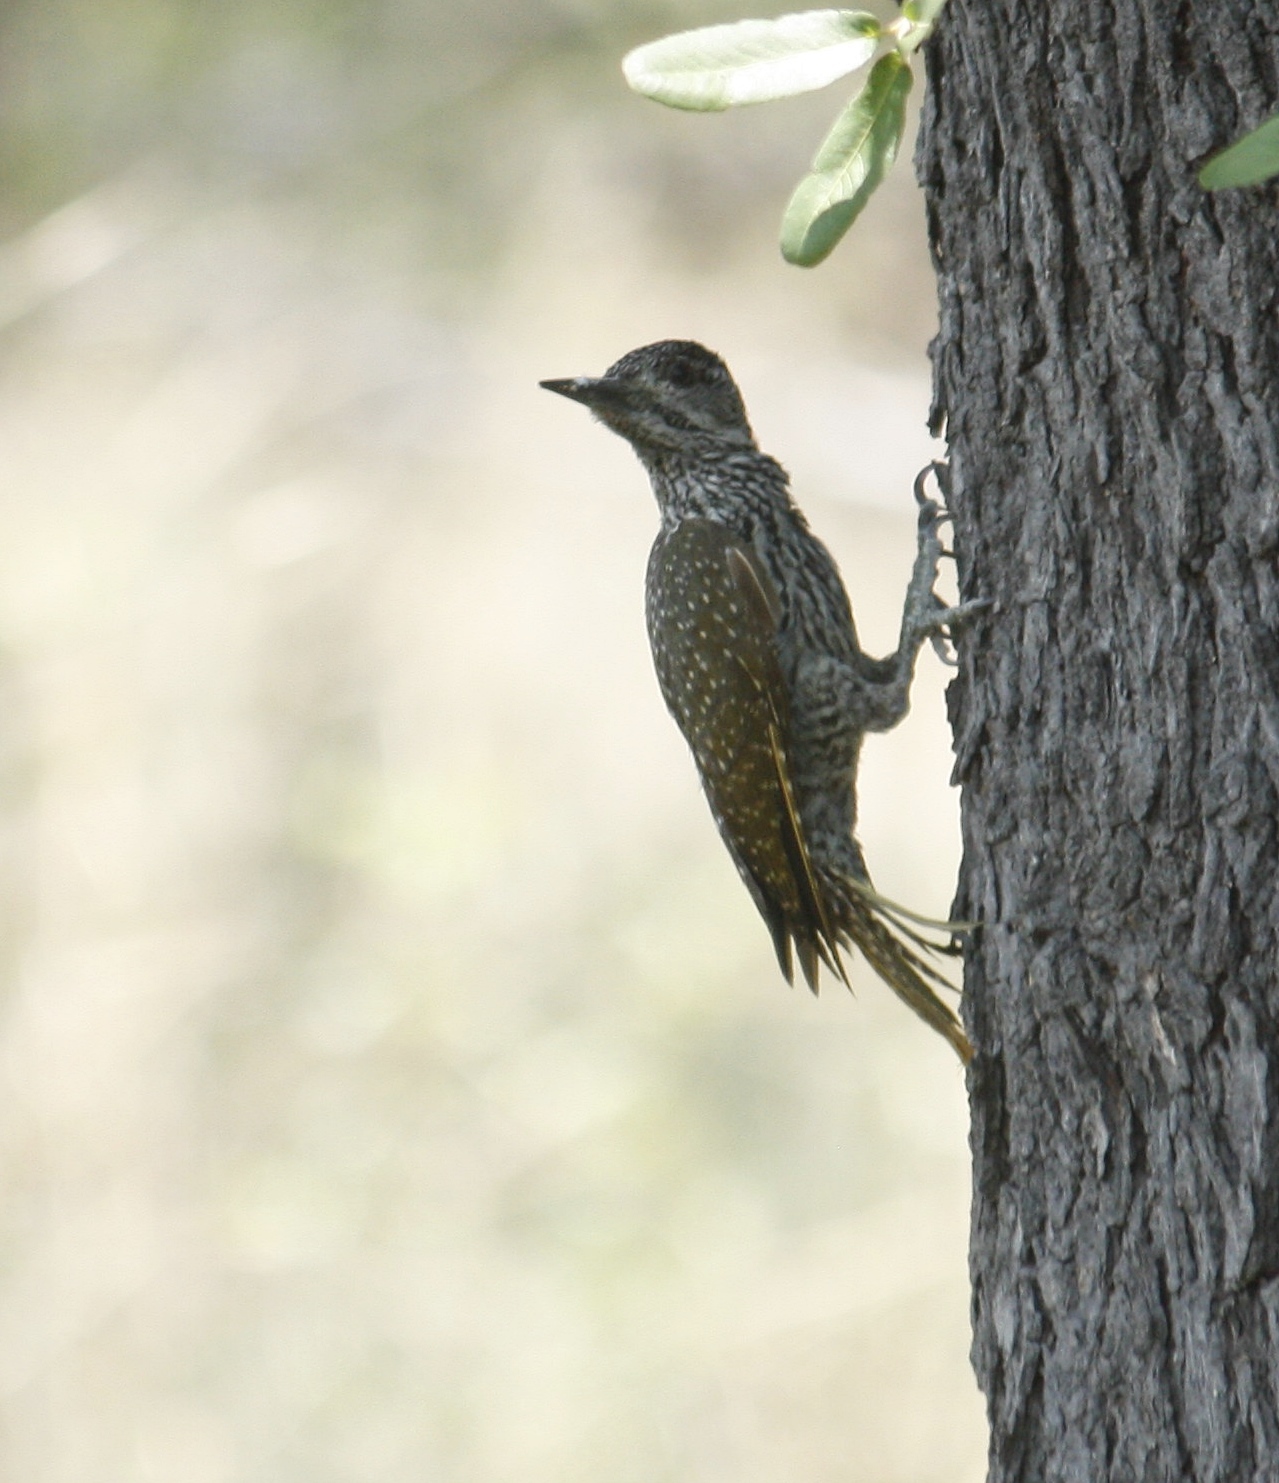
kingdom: Animalia
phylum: Chordata
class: Aves
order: Piciformes
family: Picidae
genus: Campethera
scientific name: Campethera abingoni
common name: Golden-tailed woodpecker
